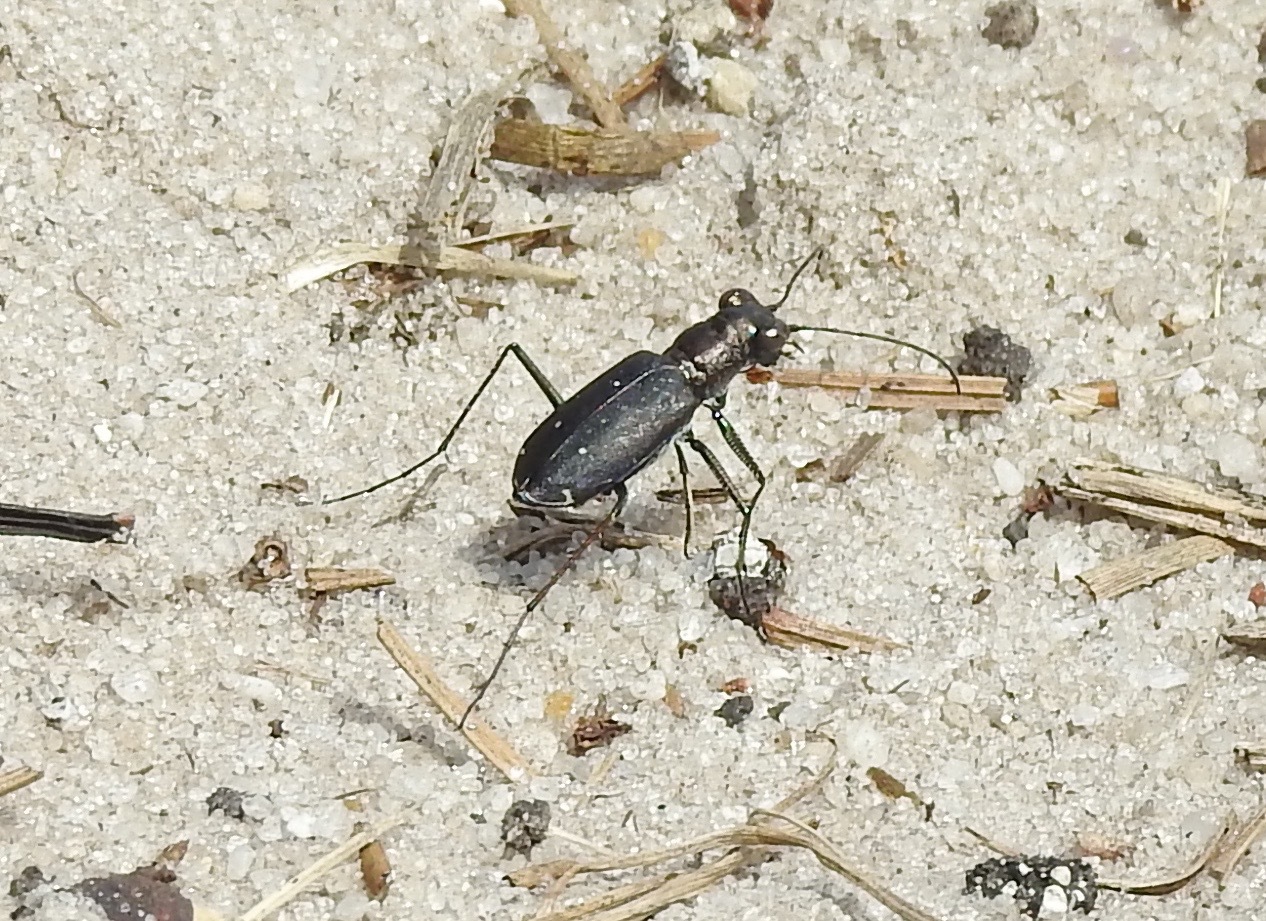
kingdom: Animalia
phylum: Arthropoda
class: Insecta
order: Coleoptera
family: Carabidae
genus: Cicindela
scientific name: Cicindela punctulata
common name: Punctured tiger beetle
